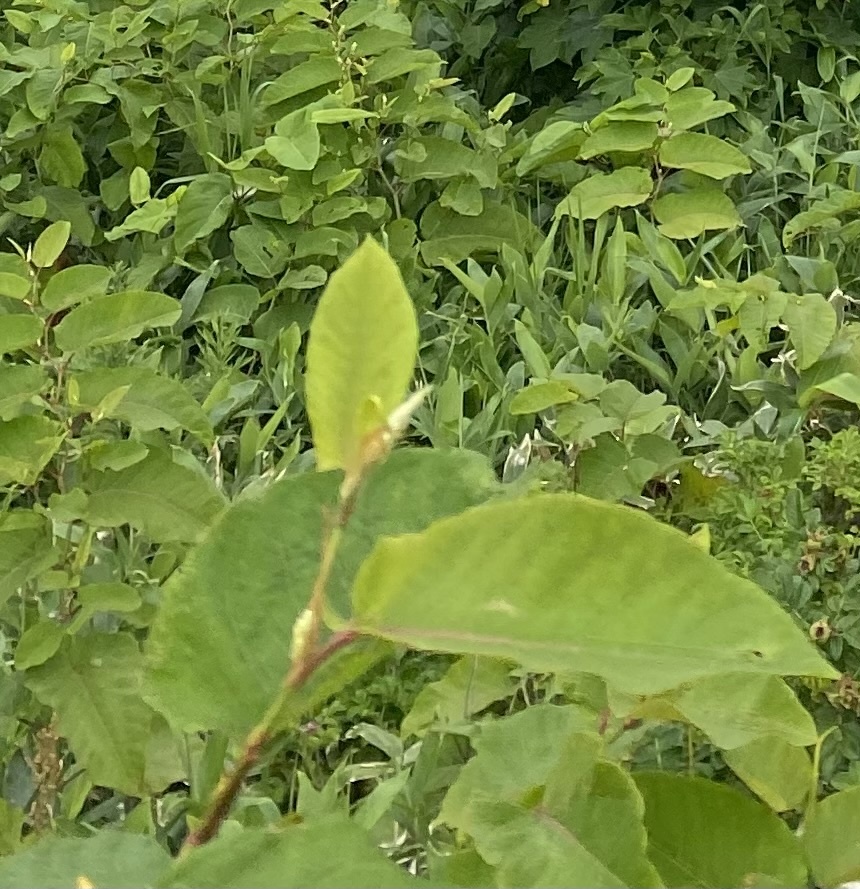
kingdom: Plantae
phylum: Tracheophyta
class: Magnoliopsida
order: Caryophyllales
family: Polygonaceae
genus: Reynoutria
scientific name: Reynoutria sachalinensis
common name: Giant knotweed
